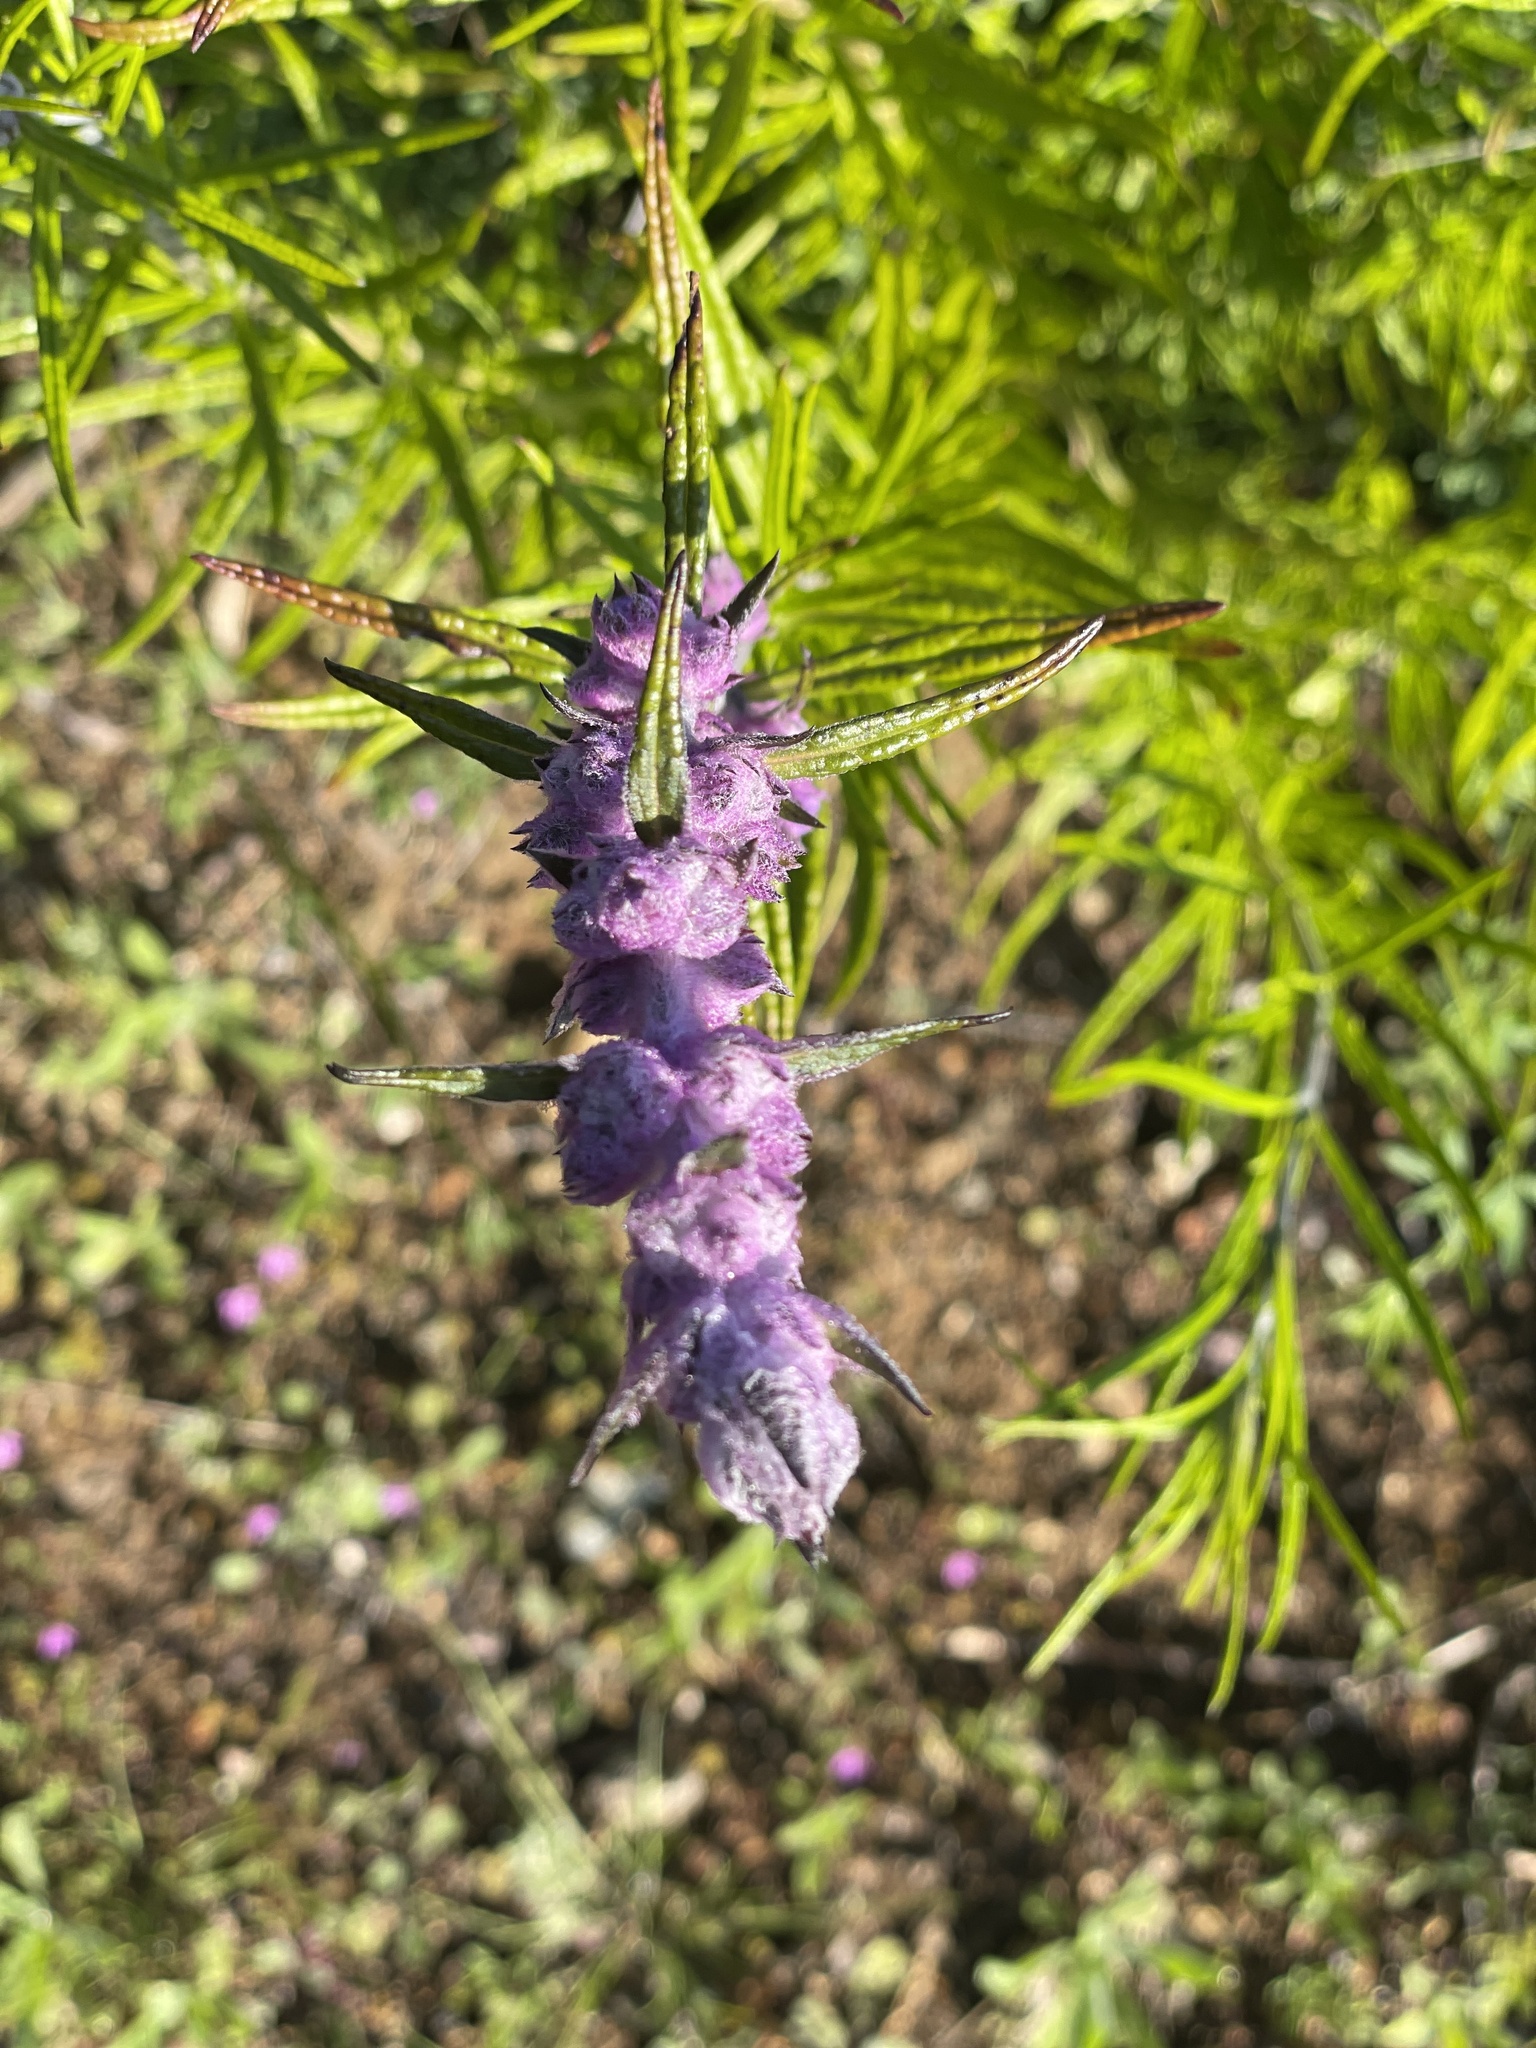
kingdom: Plantae
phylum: Tracheophyta
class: Magnoliopsida
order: Lamiales
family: Lamiaceae
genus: Trichostema
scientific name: Trichostema lanatum
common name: Woolly bluecurls
